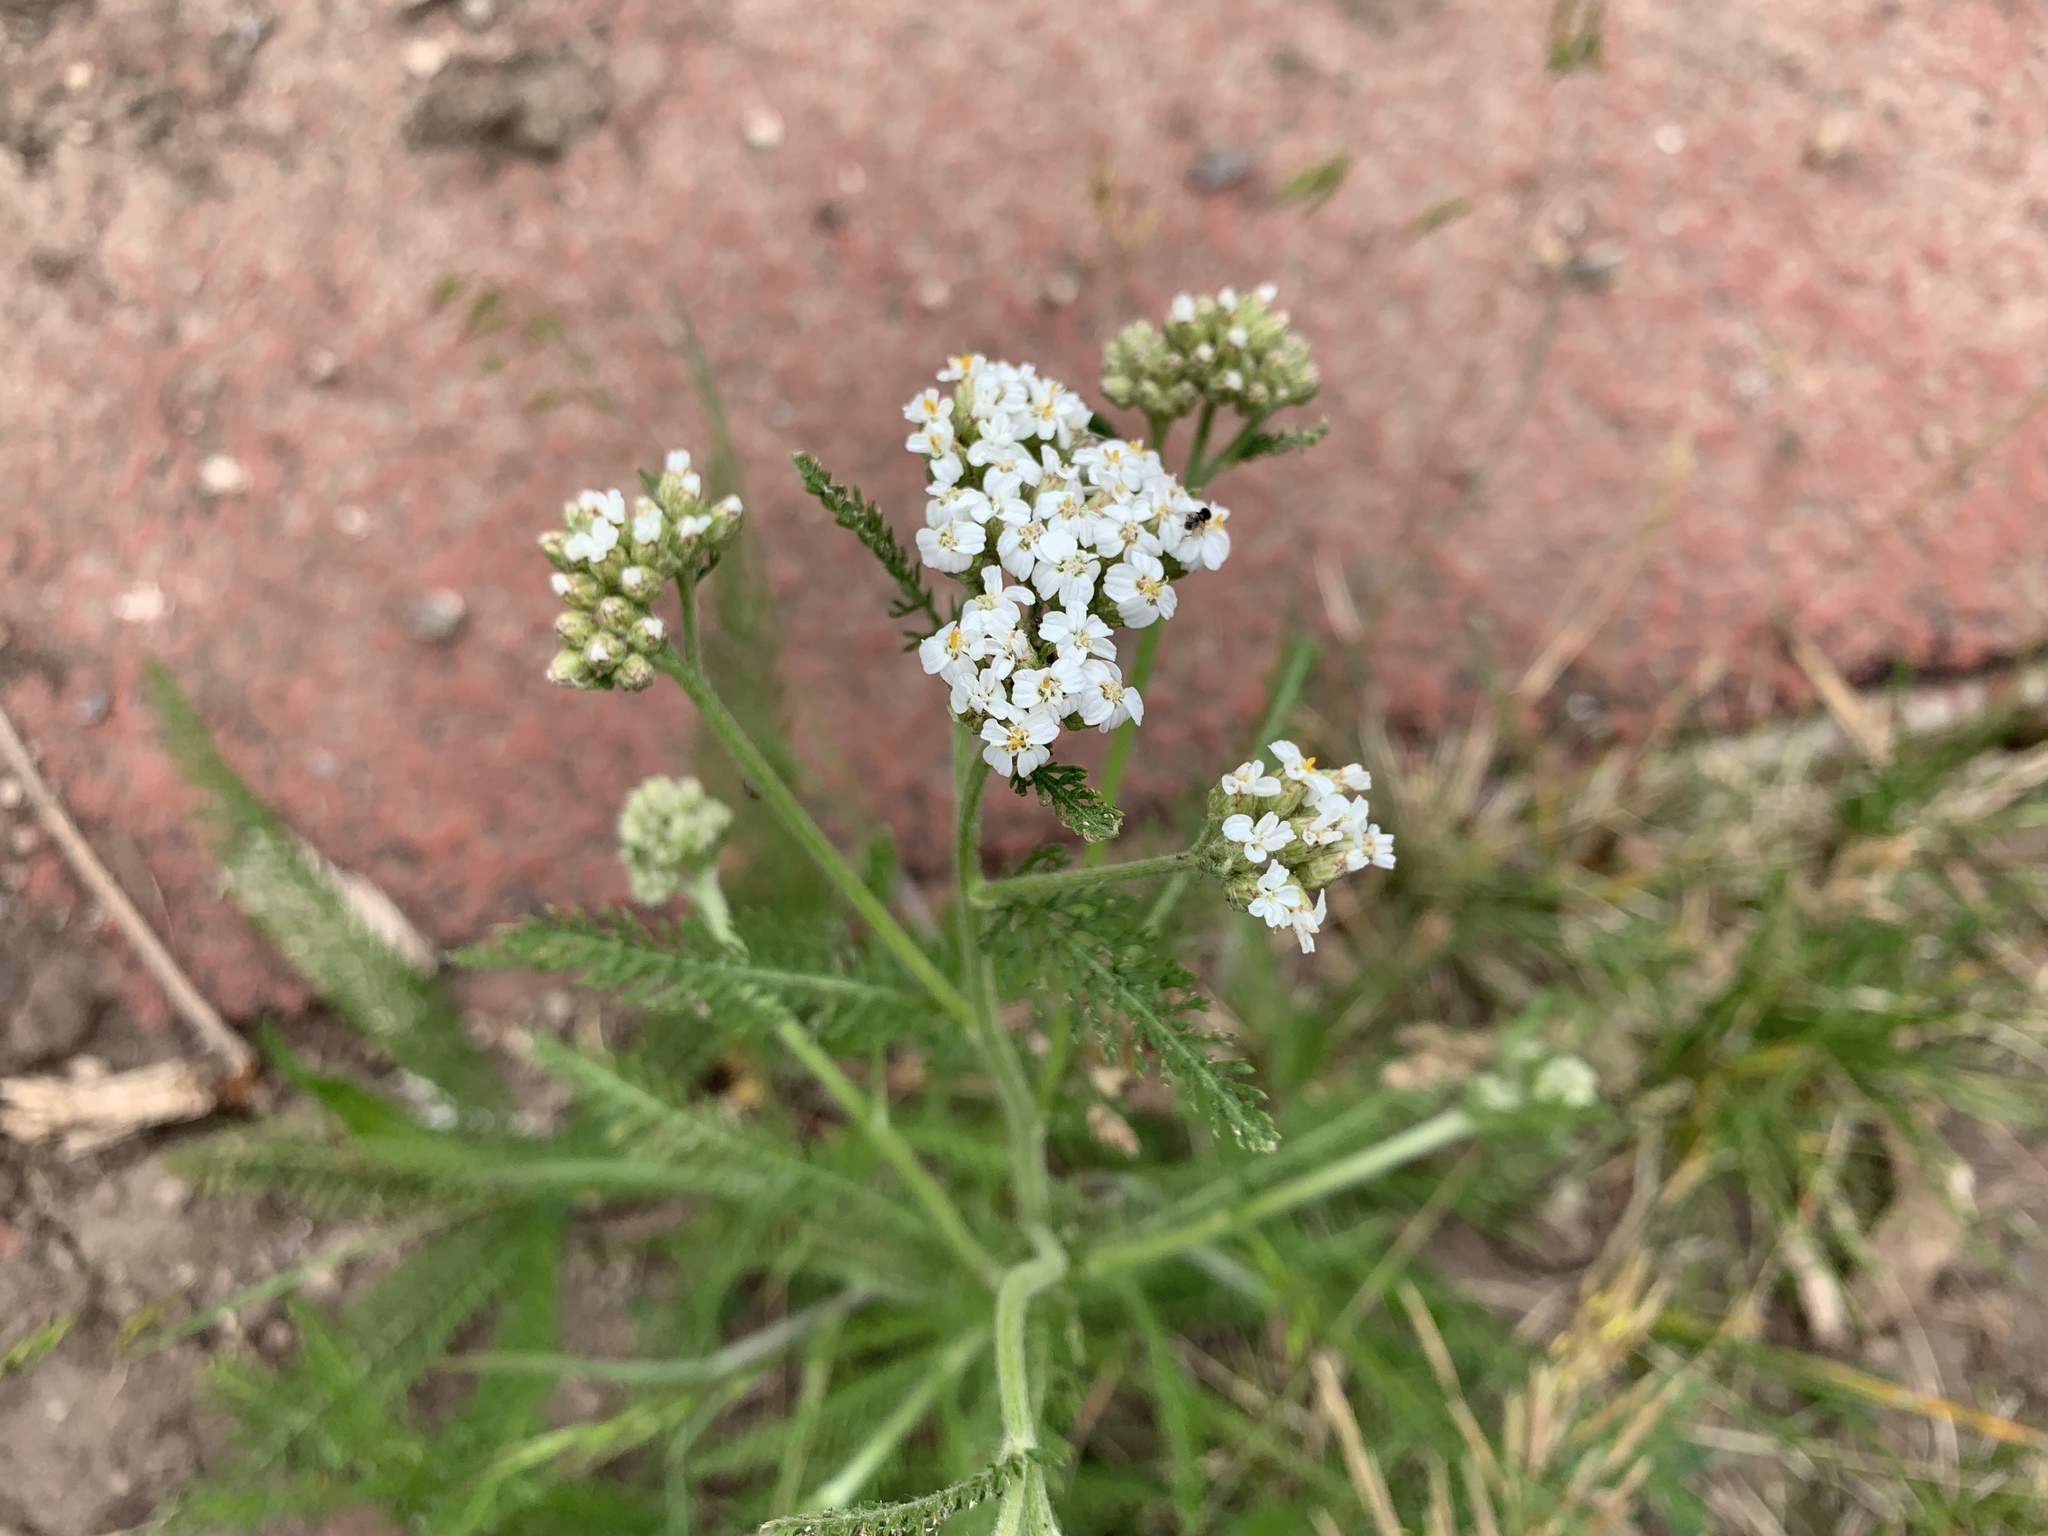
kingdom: Plantae
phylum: Tracheophyta
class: Magnoliopsida
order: Asterales
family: Asteraceae
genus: Achillea
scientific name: Achillea millefolium
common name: Yarrow
